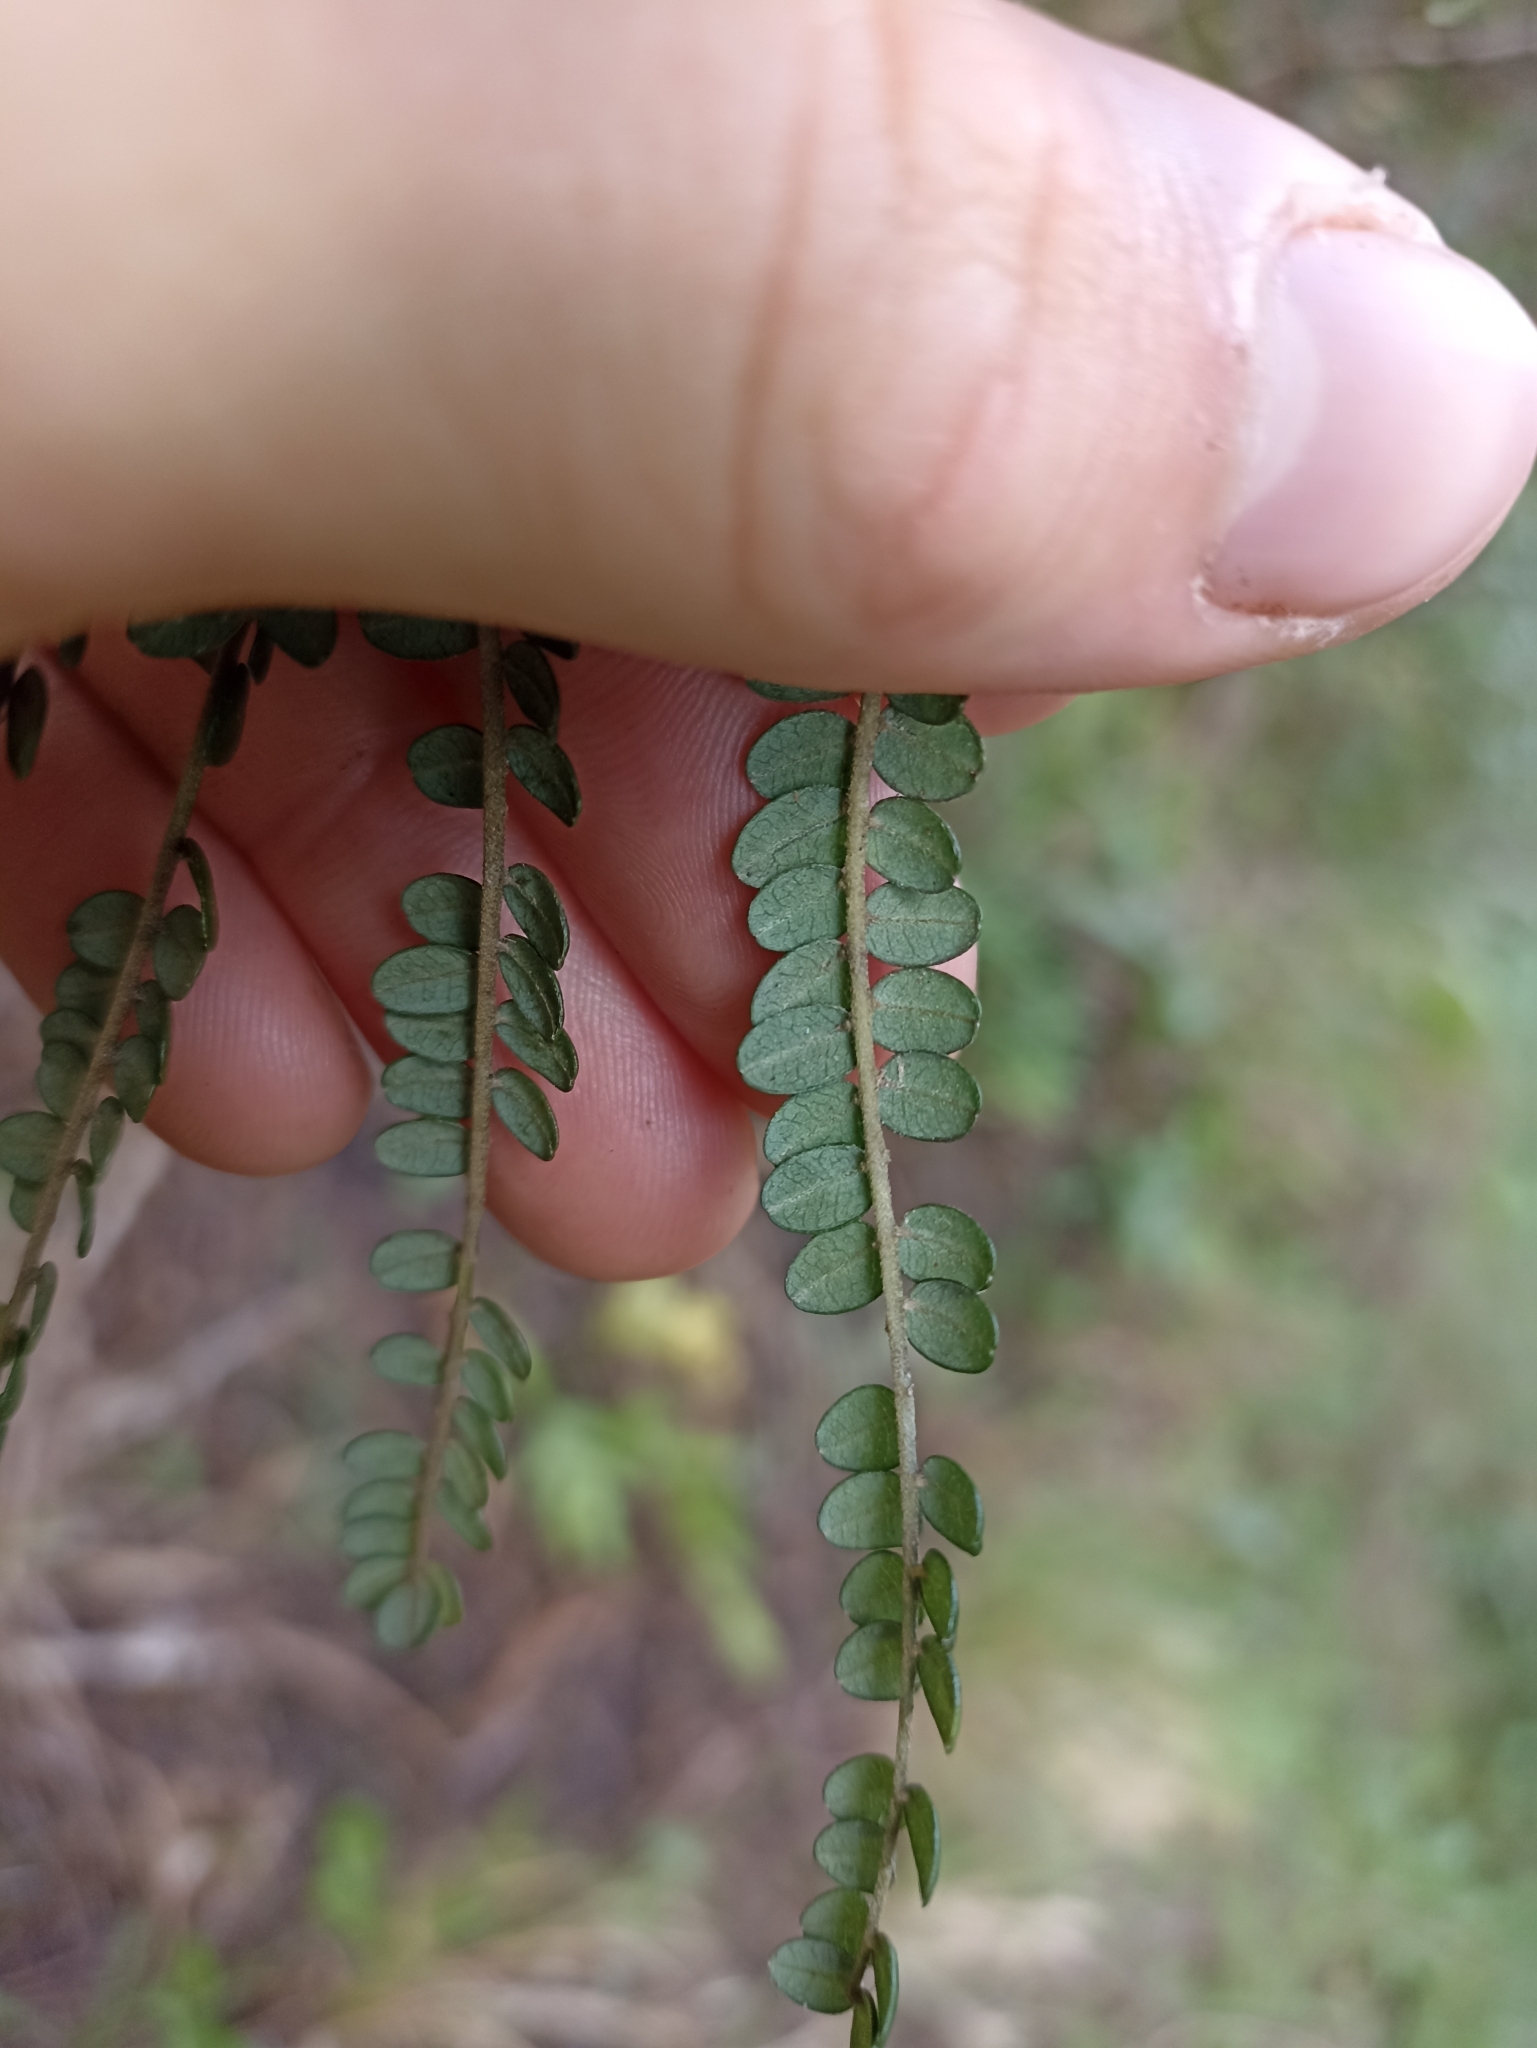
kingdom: Plantae
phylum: Tracheophyta
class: Magnoliopsida
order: Fabales
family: Fabaceae
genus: Sophora
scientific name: Sophora fulvida
